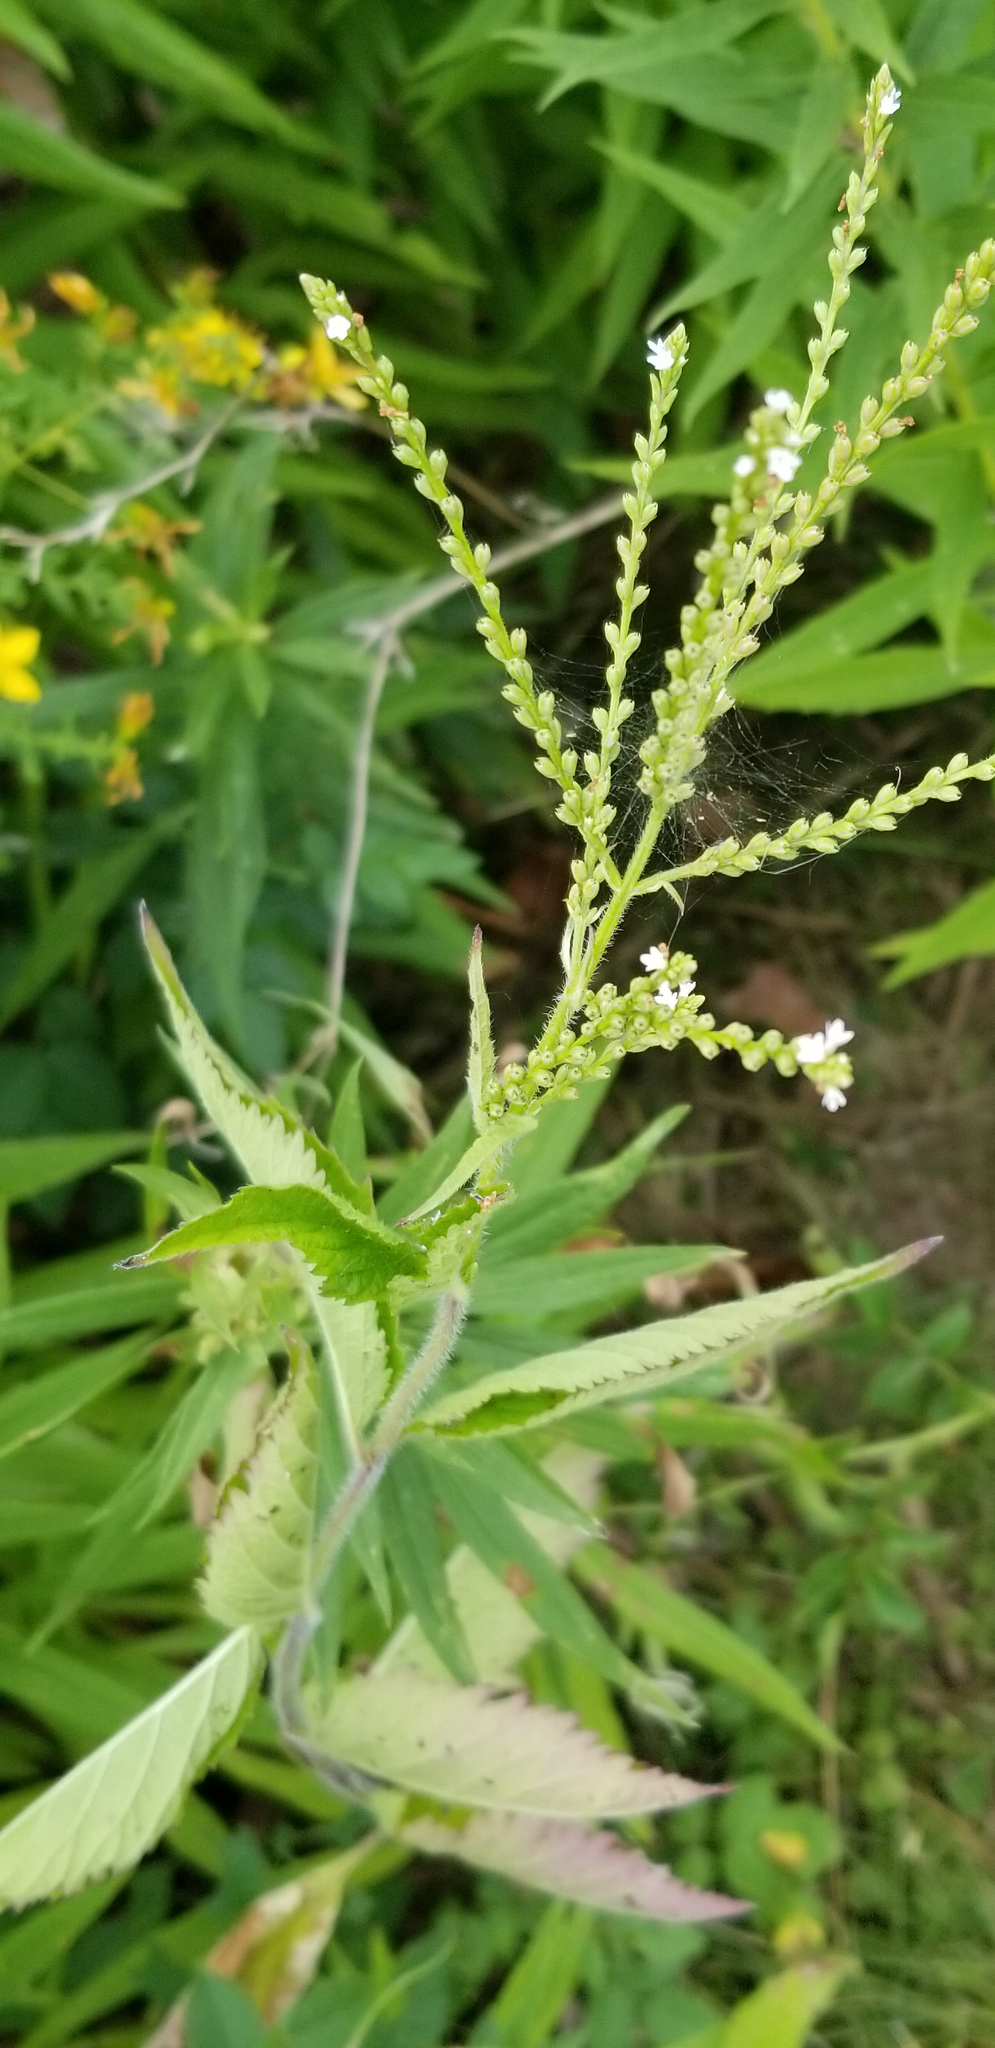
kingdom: Plantae
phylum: Tracheophyta
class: Magnoliopsida
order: Lamiales
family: Verbenaceae
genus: Verbena
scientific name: Verbena urticifolia
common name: Nettle-leaved vervain
